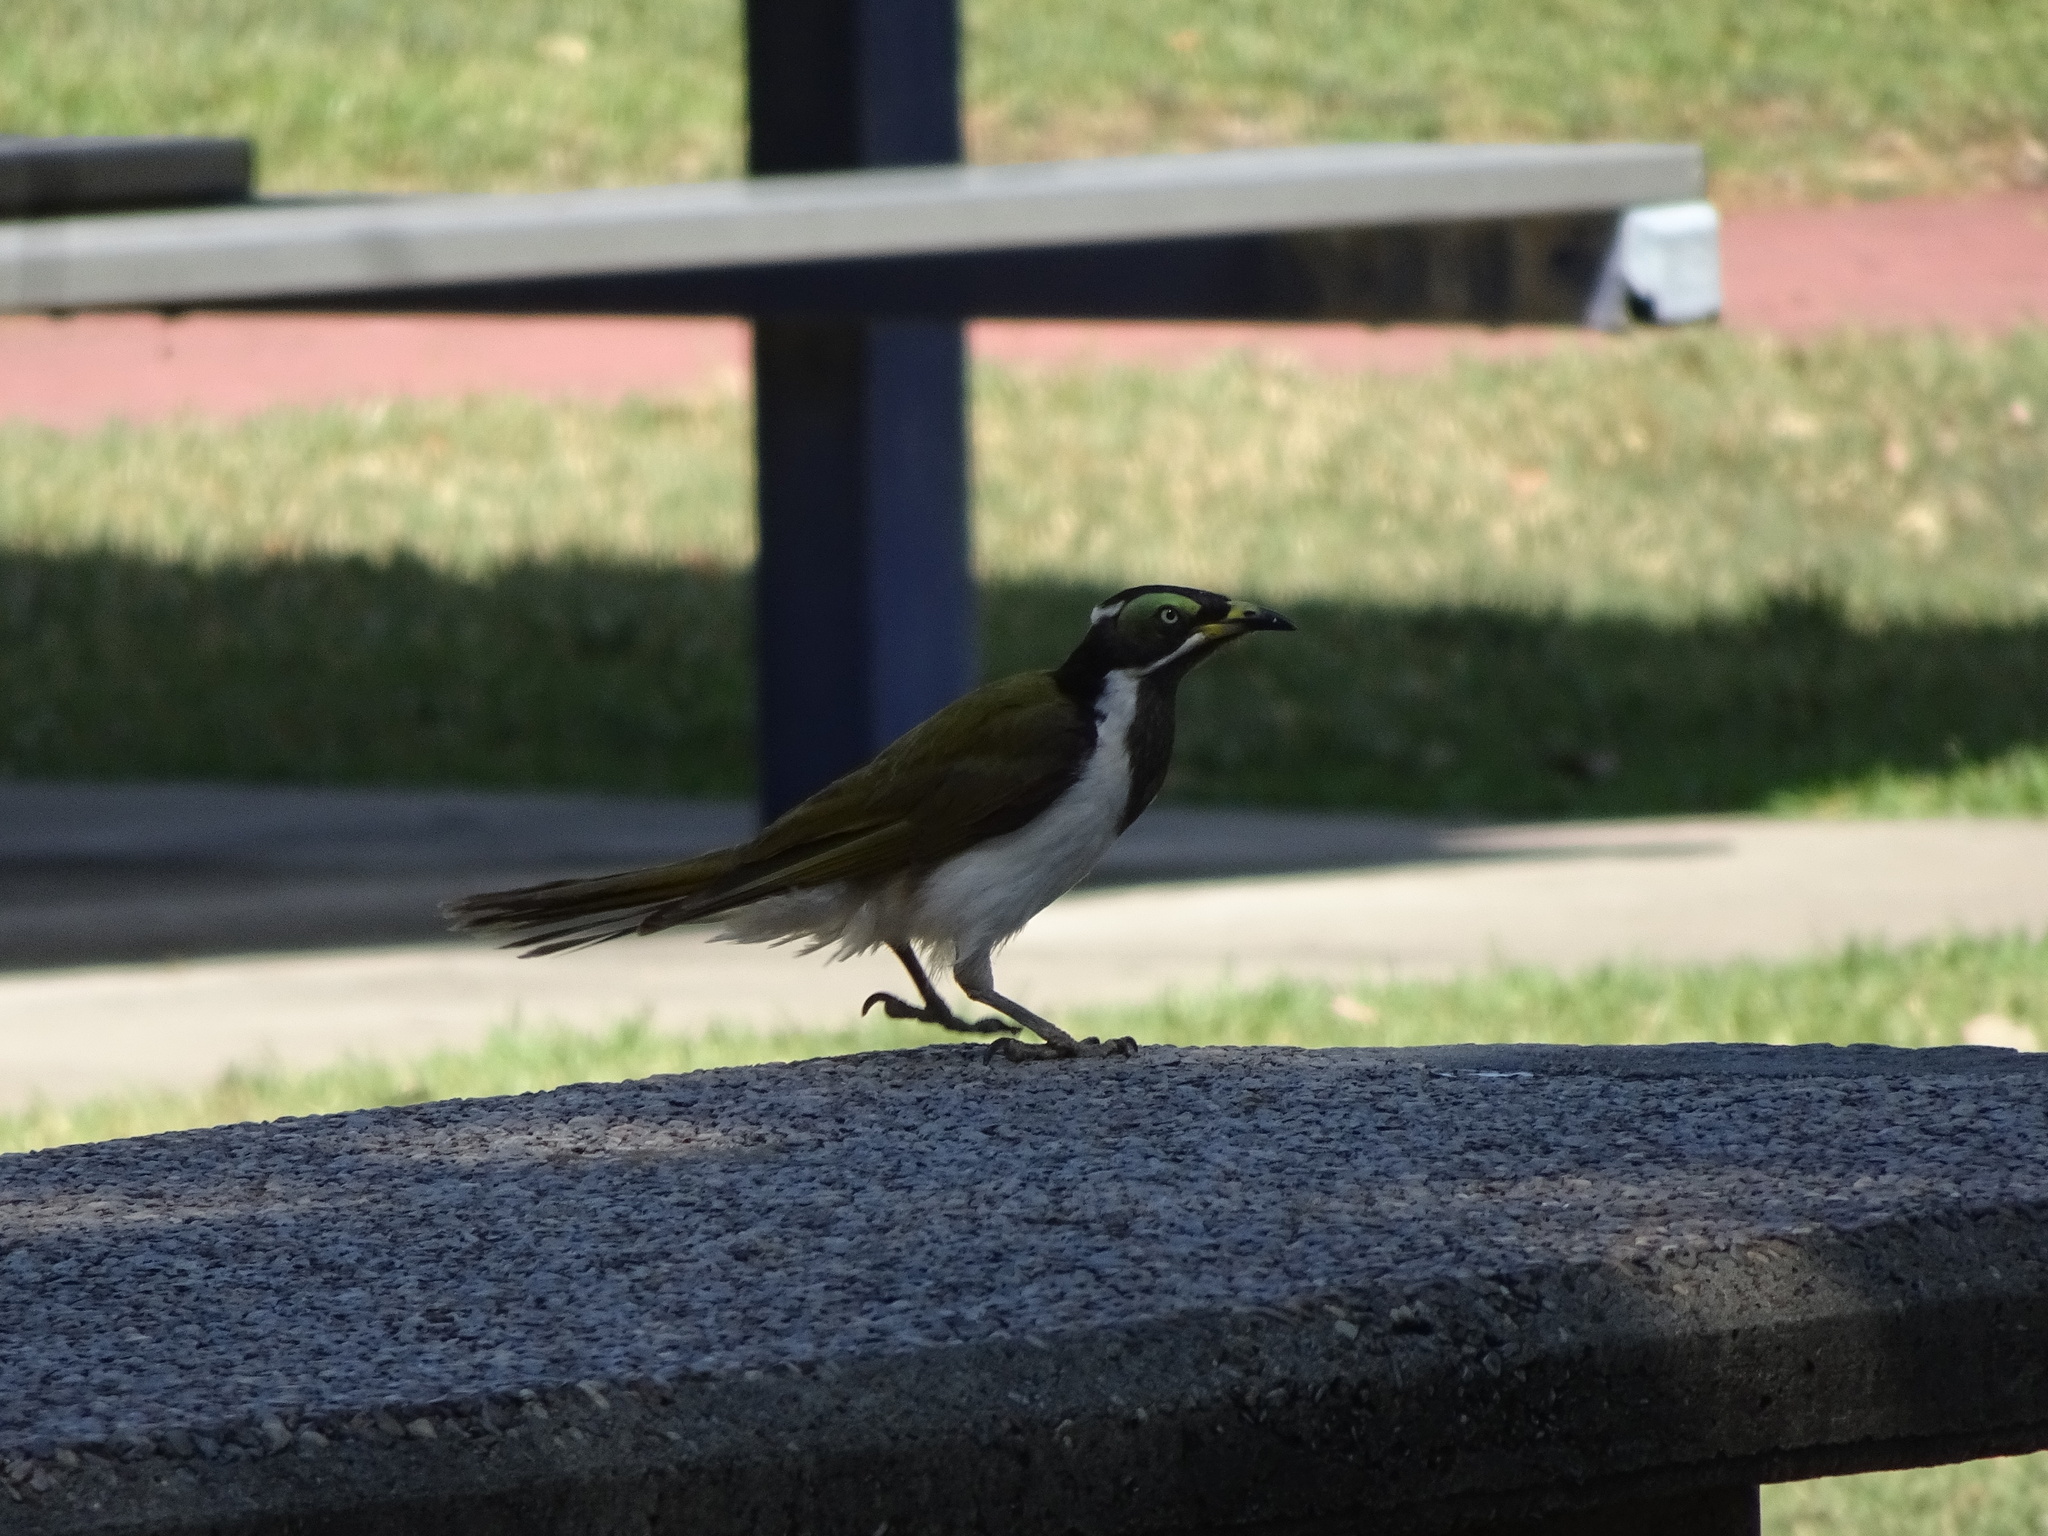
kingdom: Animalia
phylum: Chordata
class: Aves
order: Passeriformes
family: Meliphagidae
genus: Entomyzon
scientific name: Entomyzon cyanotis
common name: Blue-faced honeyeater
